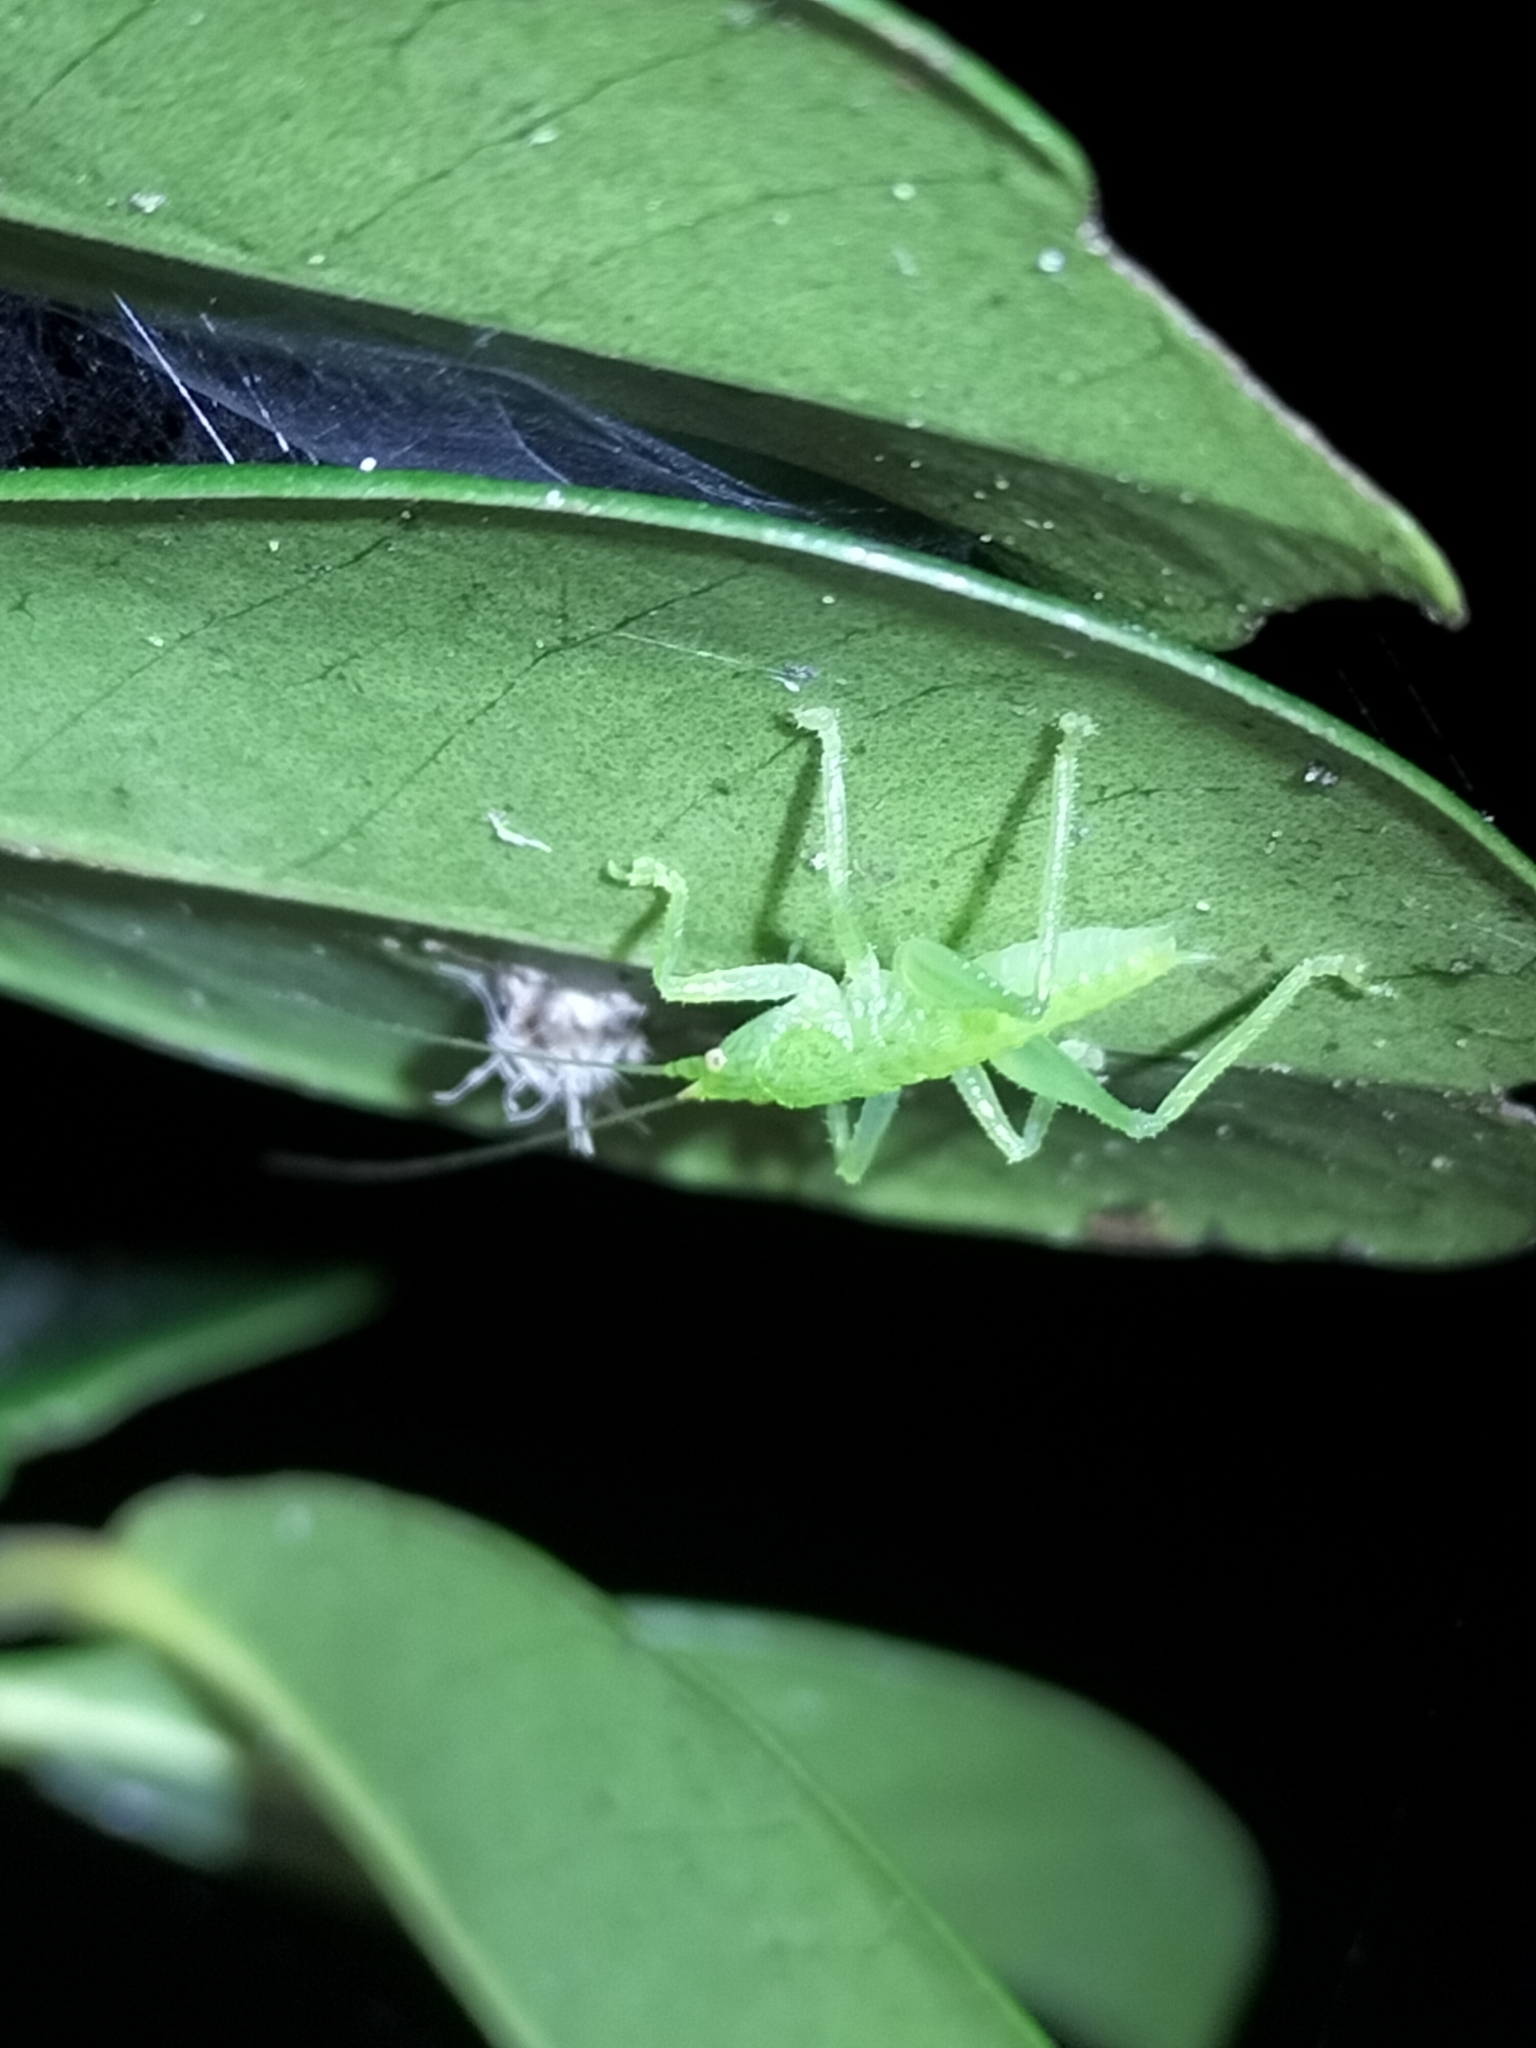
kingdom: Animalia
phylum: Arthropoda
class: Insecta
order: Orthoptera
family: Tettigoniidae
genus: Emeraldagraecia
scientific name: Emeraldagraecia munggarifrons
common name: Pink-faced emerald
